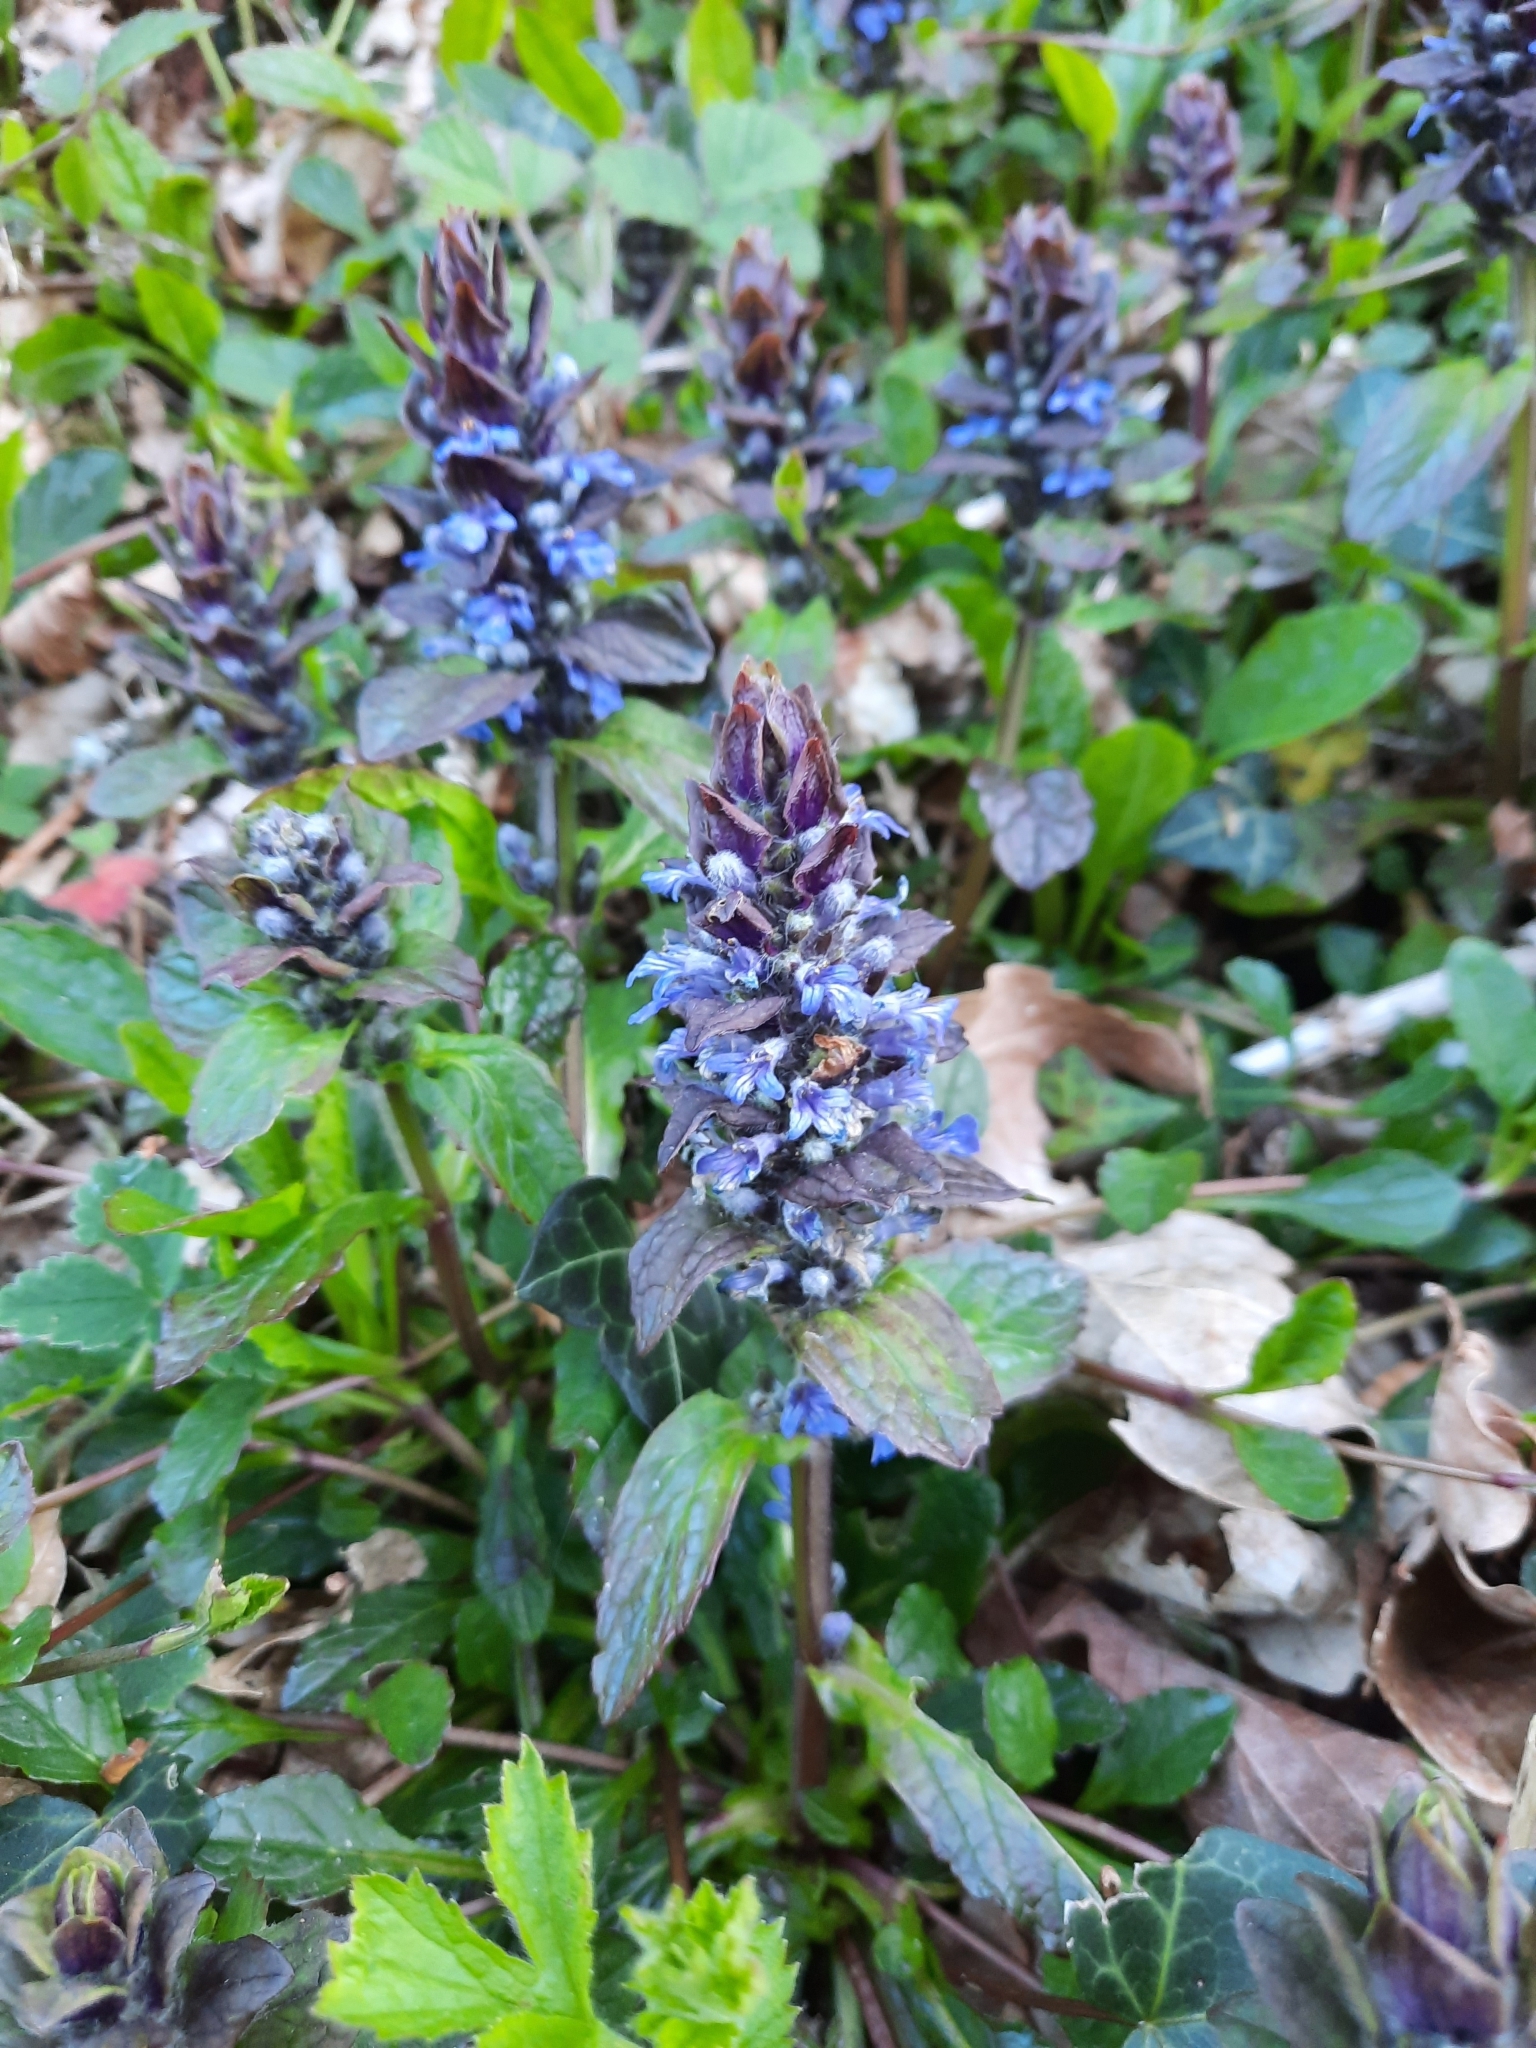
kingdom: Plantae
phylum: Tracheophyta
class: Magnoliopsida
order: Lamiales
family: Lamiaceae
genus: Ajuga
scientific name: Ajuga reptans
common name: Bugle
